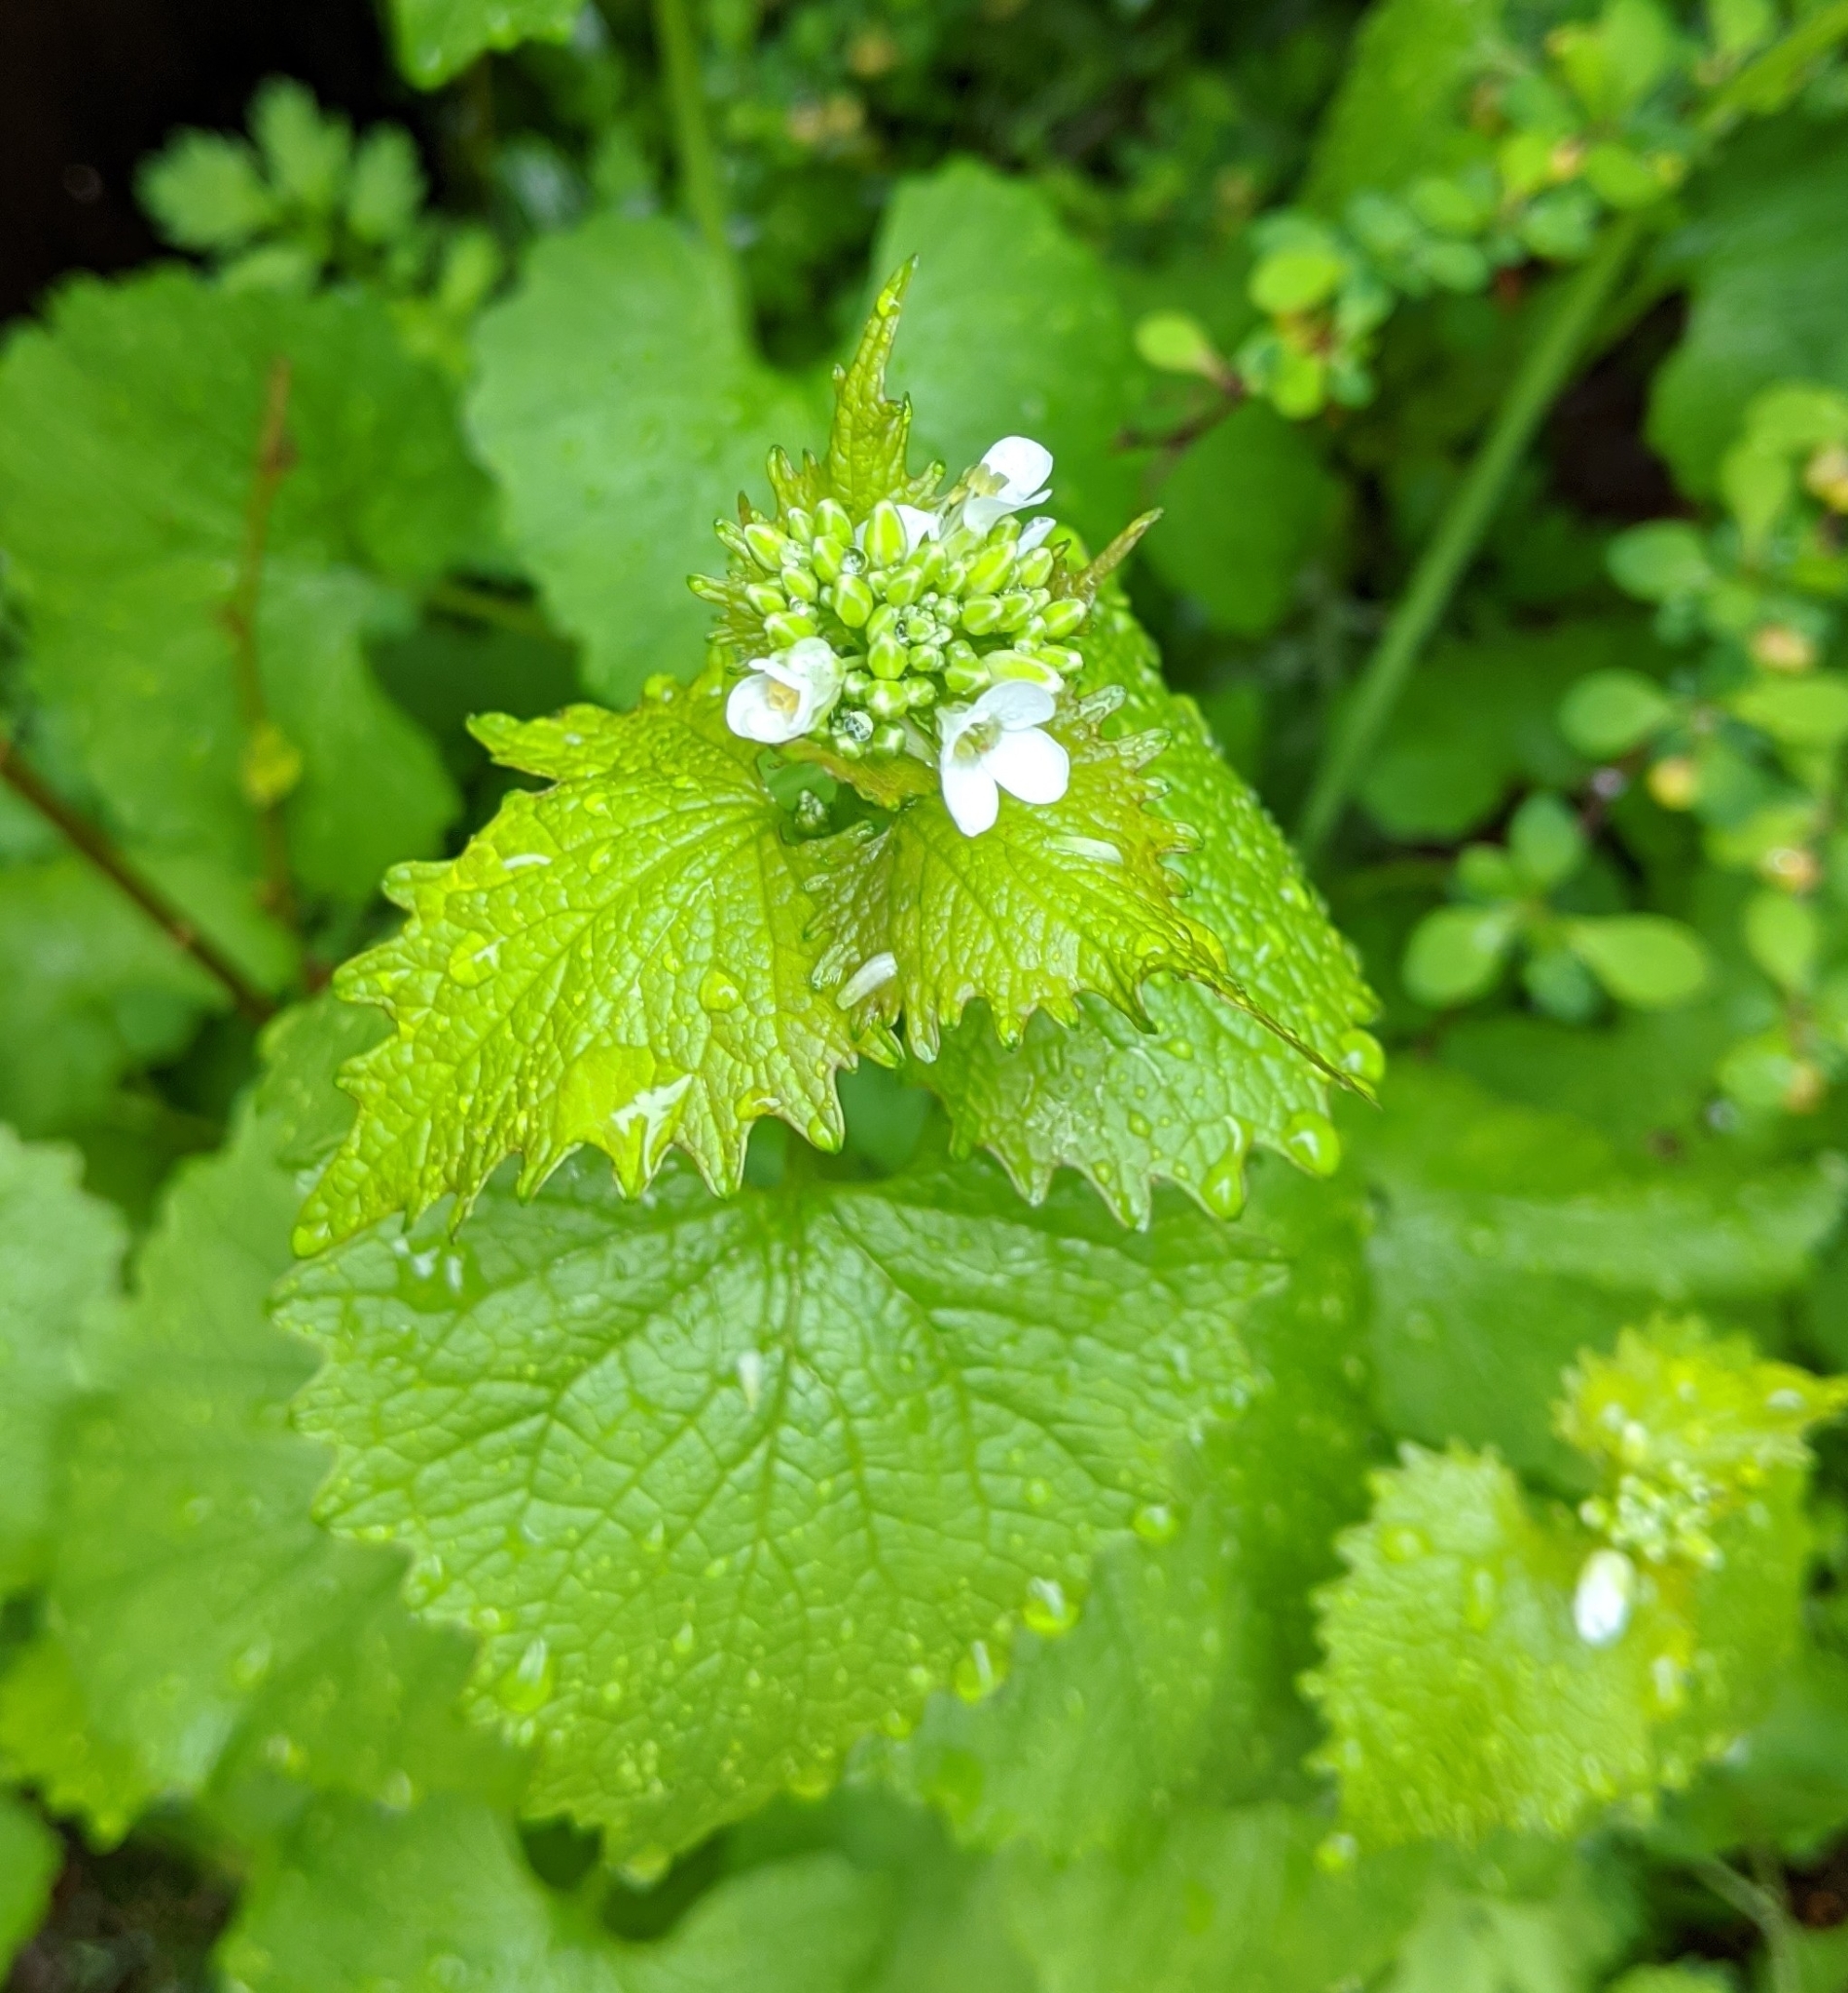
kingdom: Plantae
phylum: Tracheophyta
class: Magnoliopsida
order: Brassicales
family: Brassicaceae
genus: Alliaria
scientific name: Alliaria petiolata
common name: Garlic mustard
